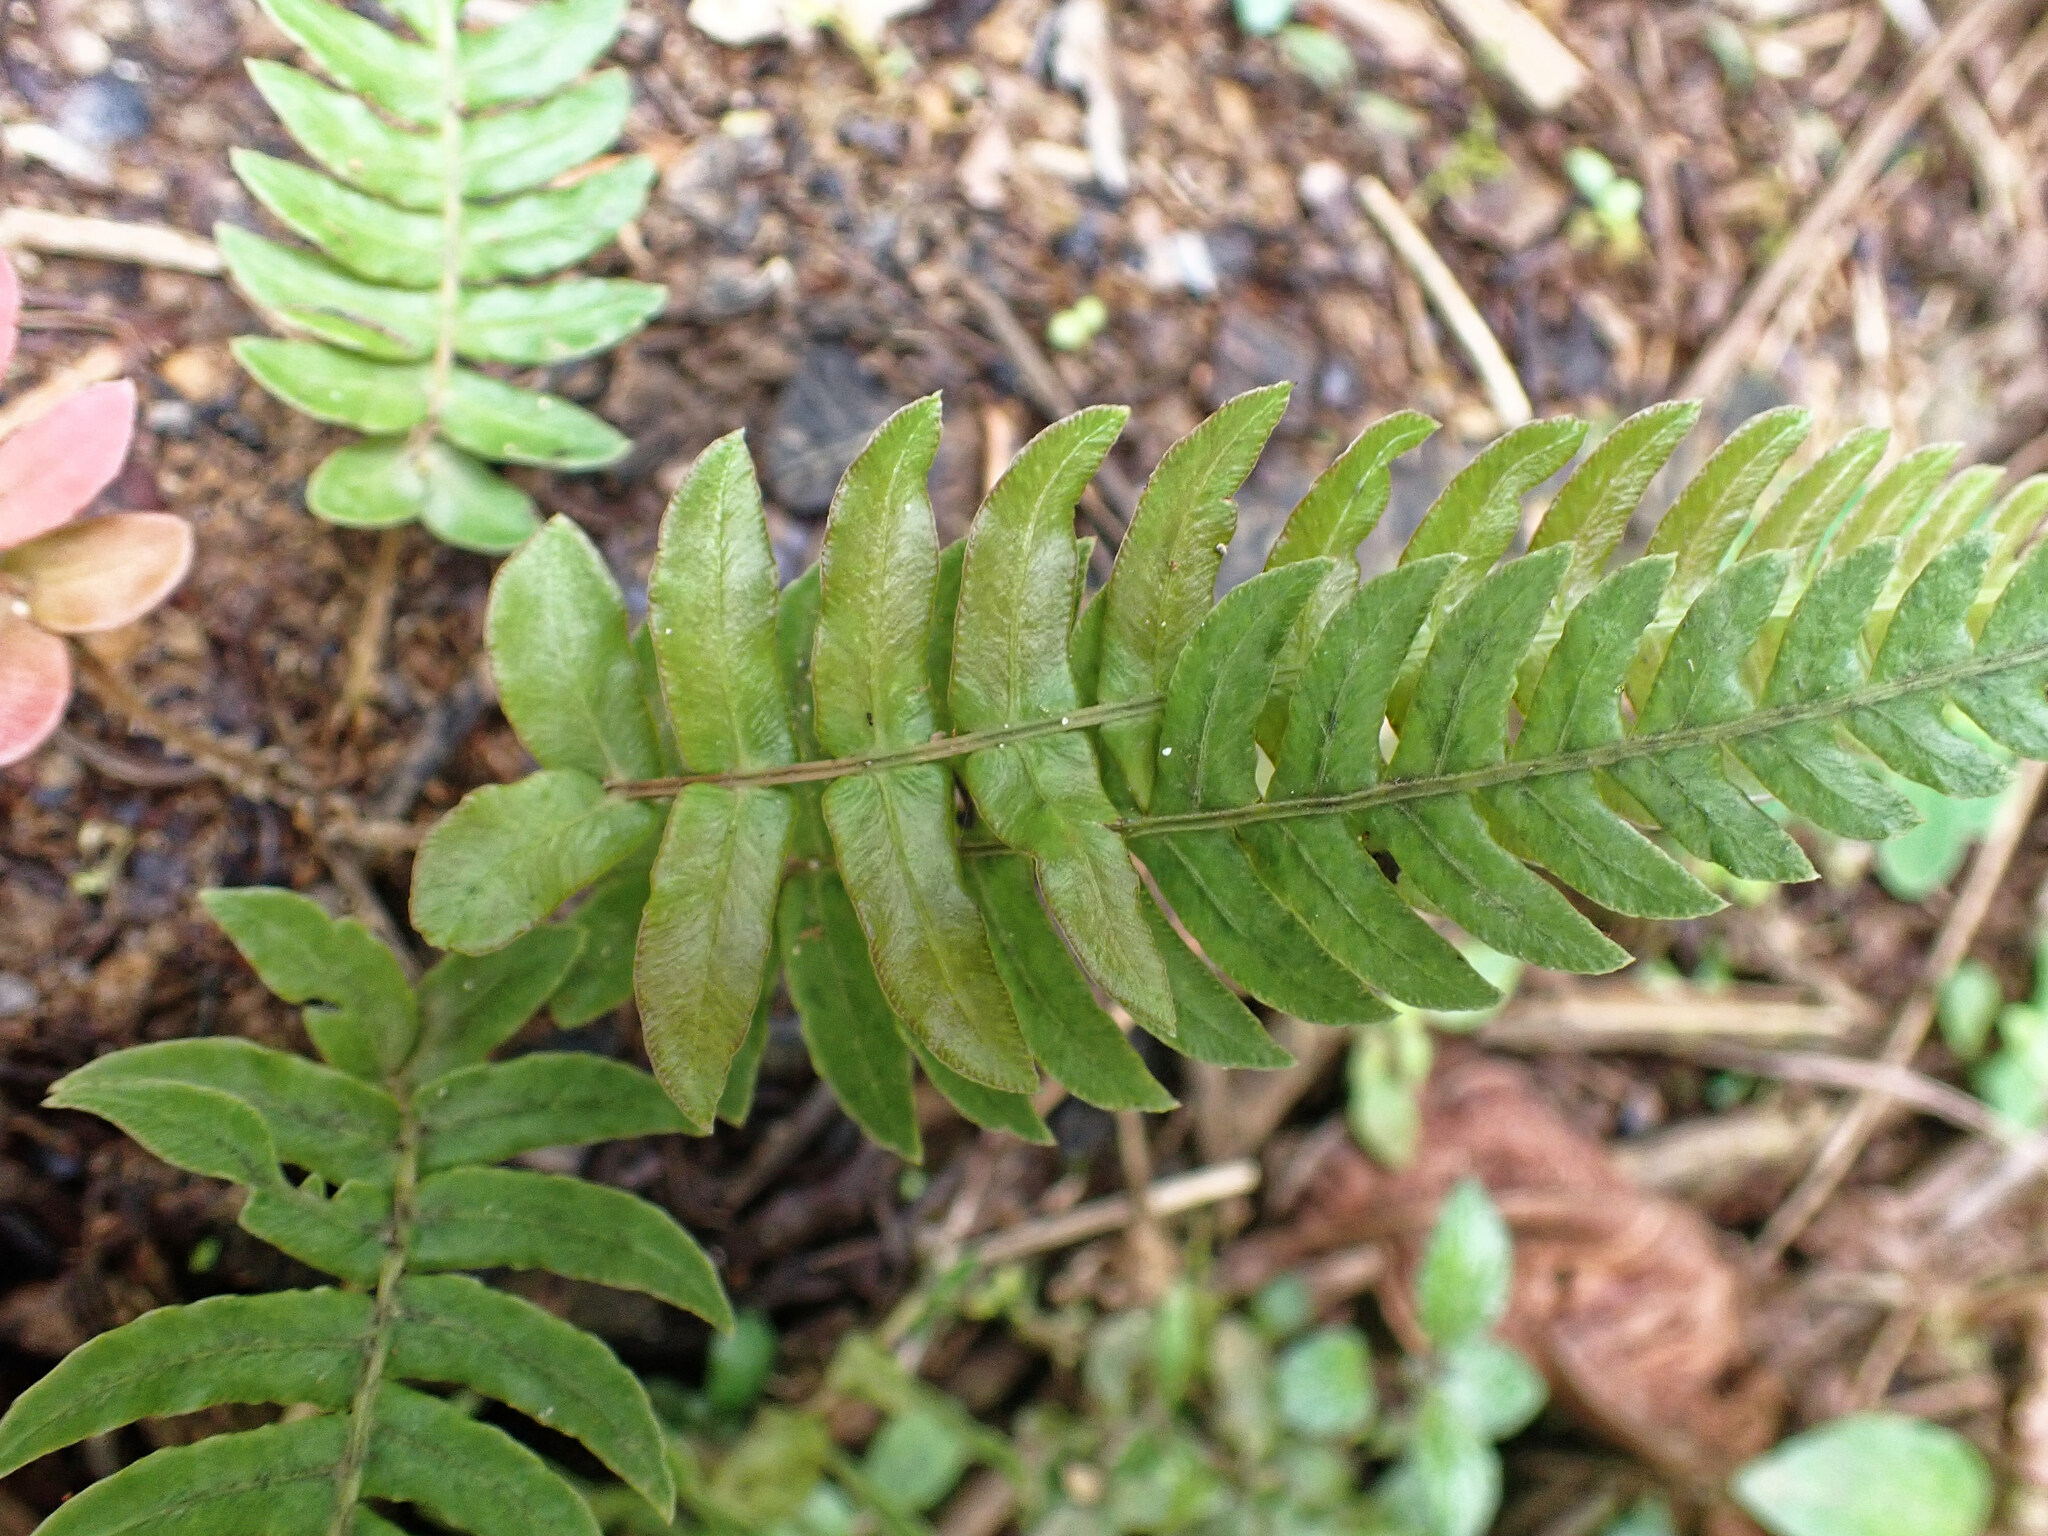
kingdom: Plantae
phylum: Tracheophyta
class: Polypodiopsida
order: Polypodiales
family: Blechnaceae
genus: Blechnum
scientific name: Blechnum occidentale
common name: Hammock fern
